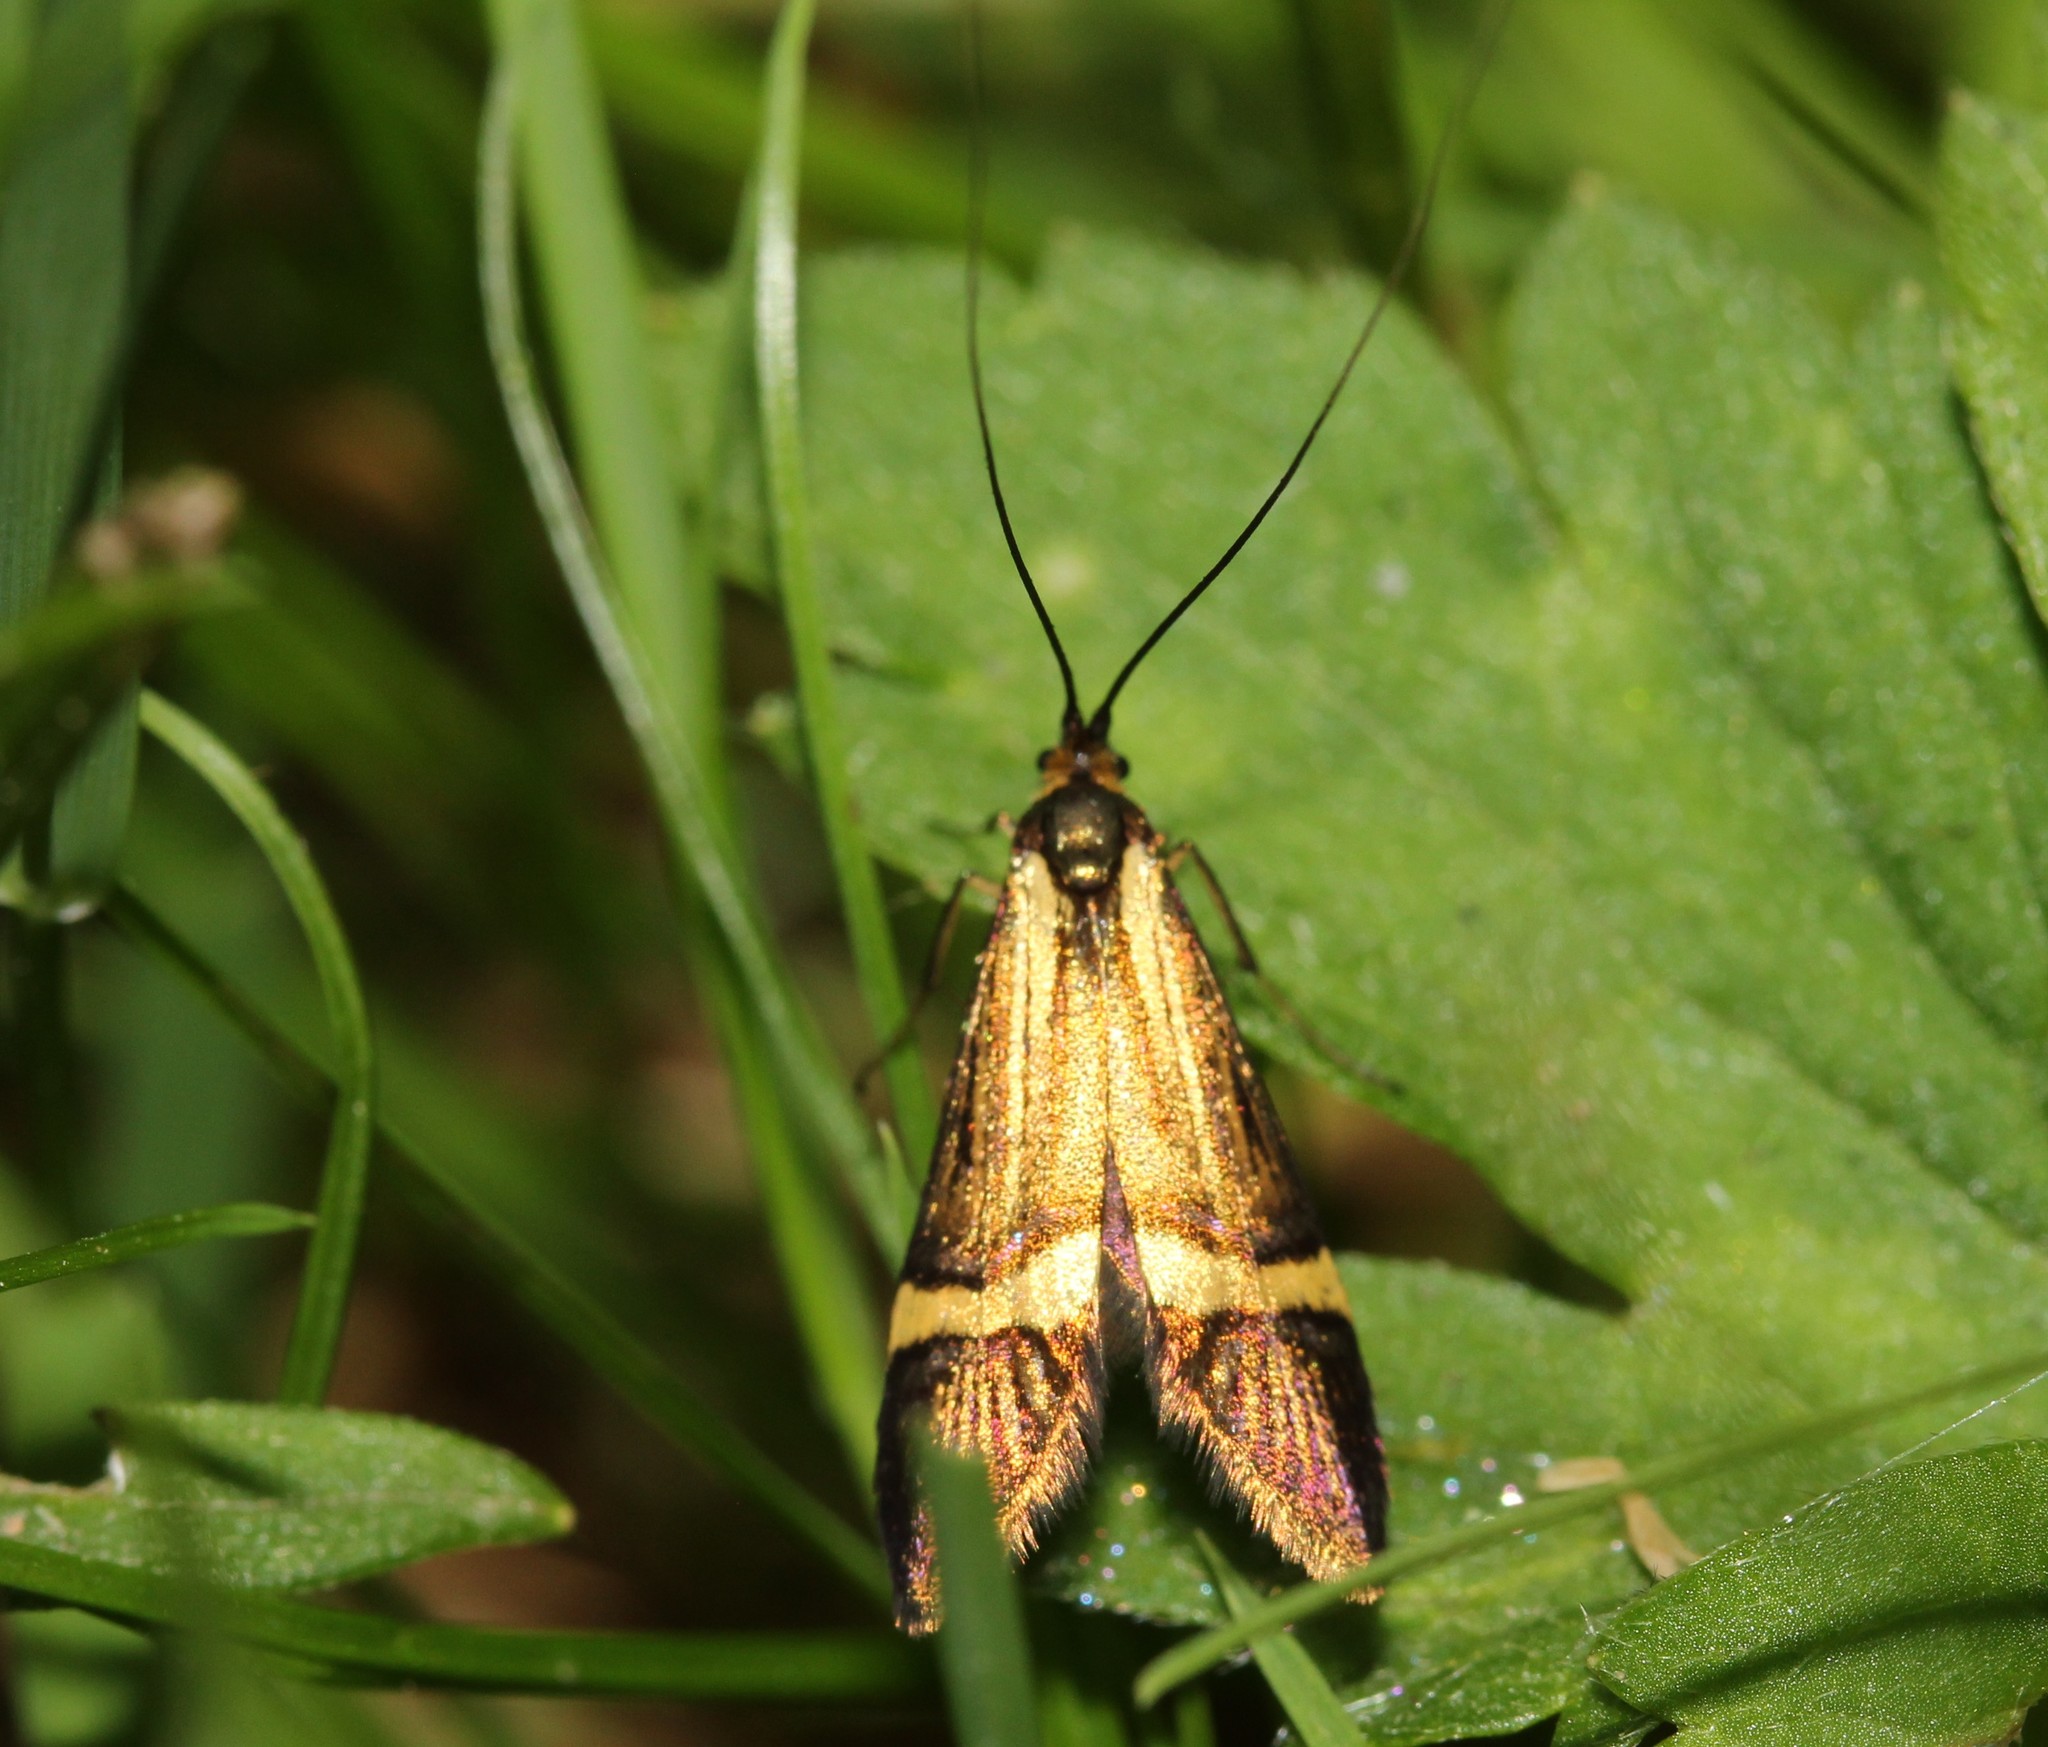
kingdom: Animalia
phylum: Arthropoda
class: Insecta
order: Lepidoptera
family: Adelidae
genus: Nemophora
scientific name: Nemophora degeerella
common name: Yellow-barred long-horn
